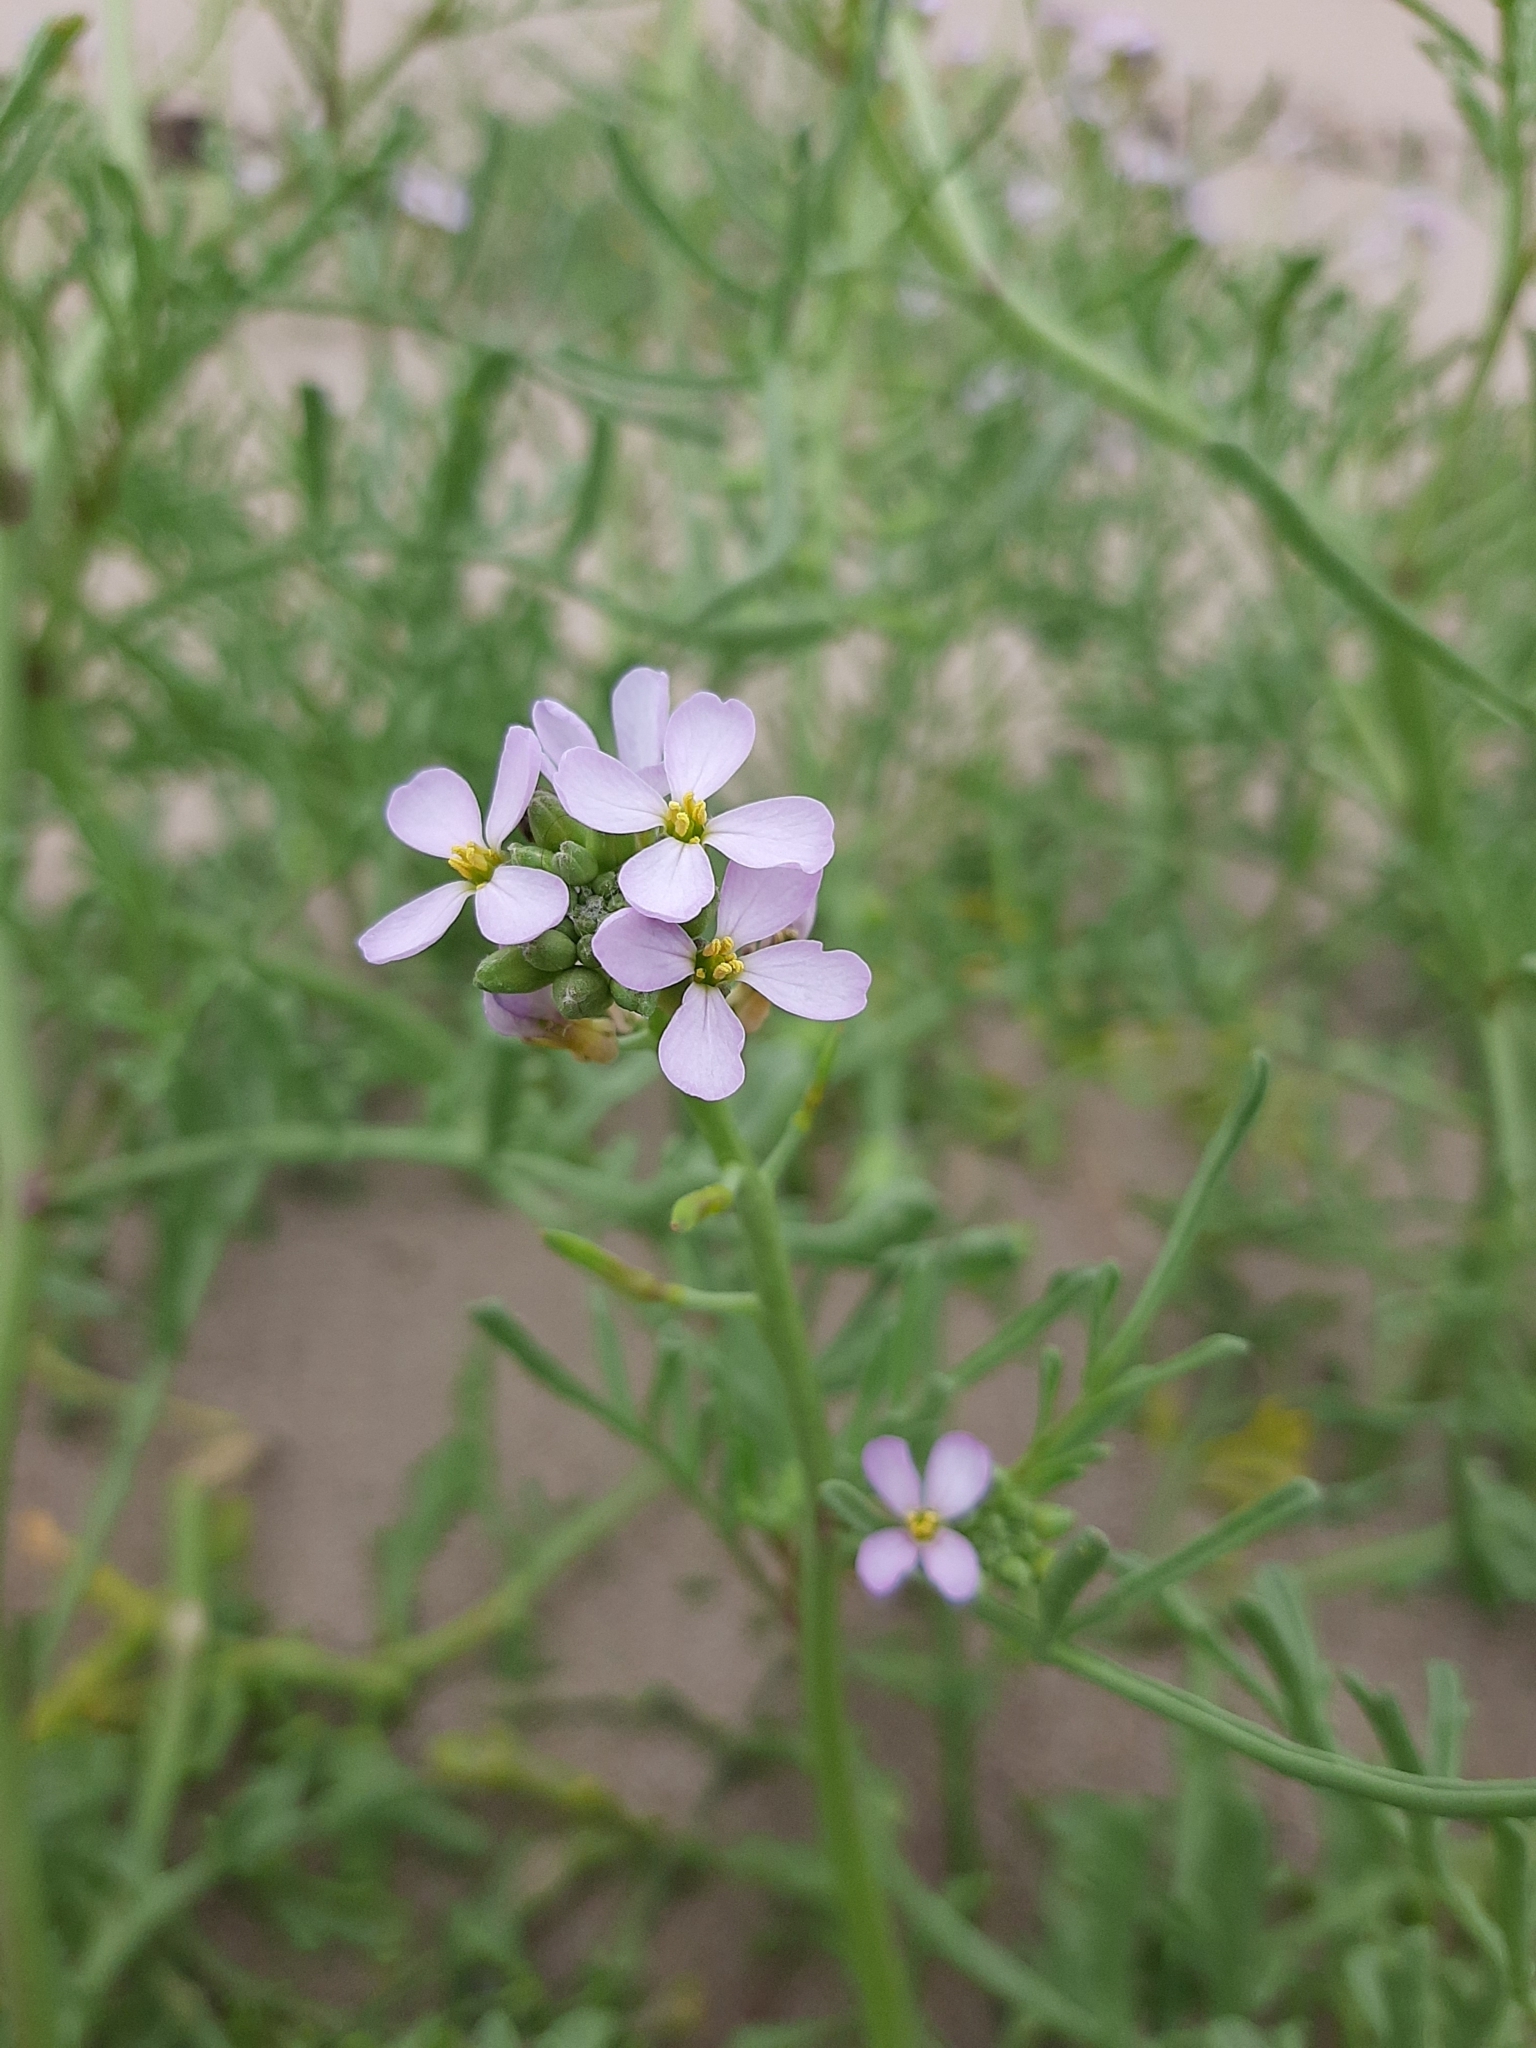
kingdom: Plantae
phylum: Tracheophyta
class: Magnoliopsida
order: Brassicales
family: Brassicaceae
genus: Cakile
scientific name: Cakile maritima
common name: Sea rocket
